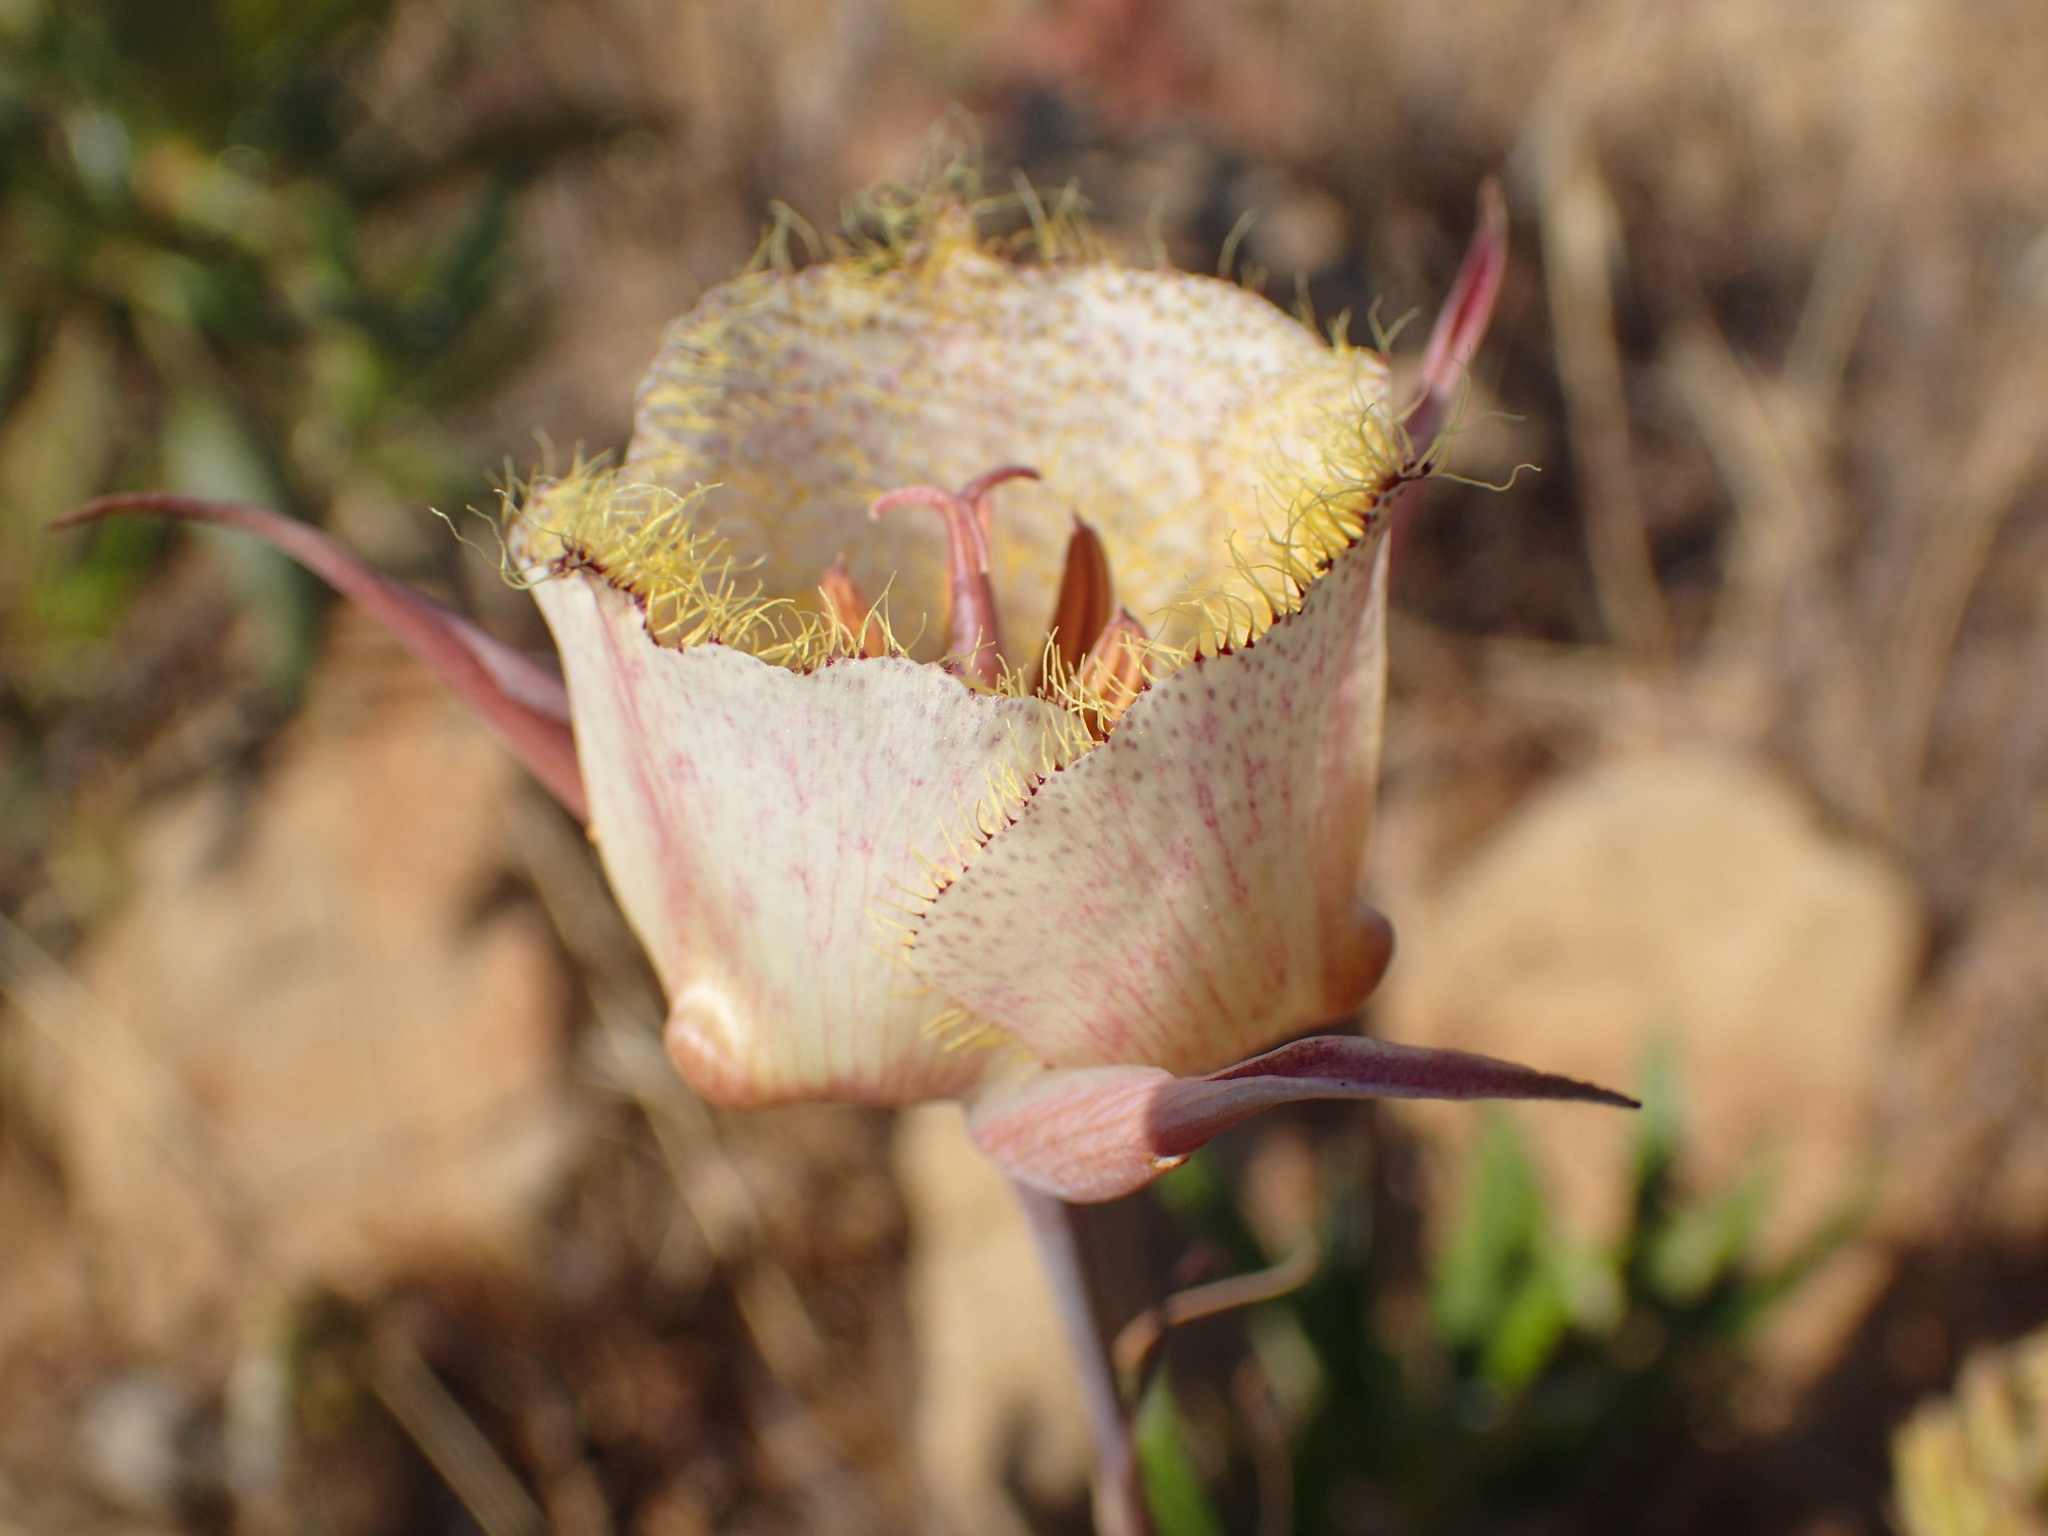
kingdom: Plantae
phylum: Tracheophyta
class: Liliopsida
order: Liliales
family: Liliaceae
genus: Calochortus
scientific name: Calochortus fimbriatus
